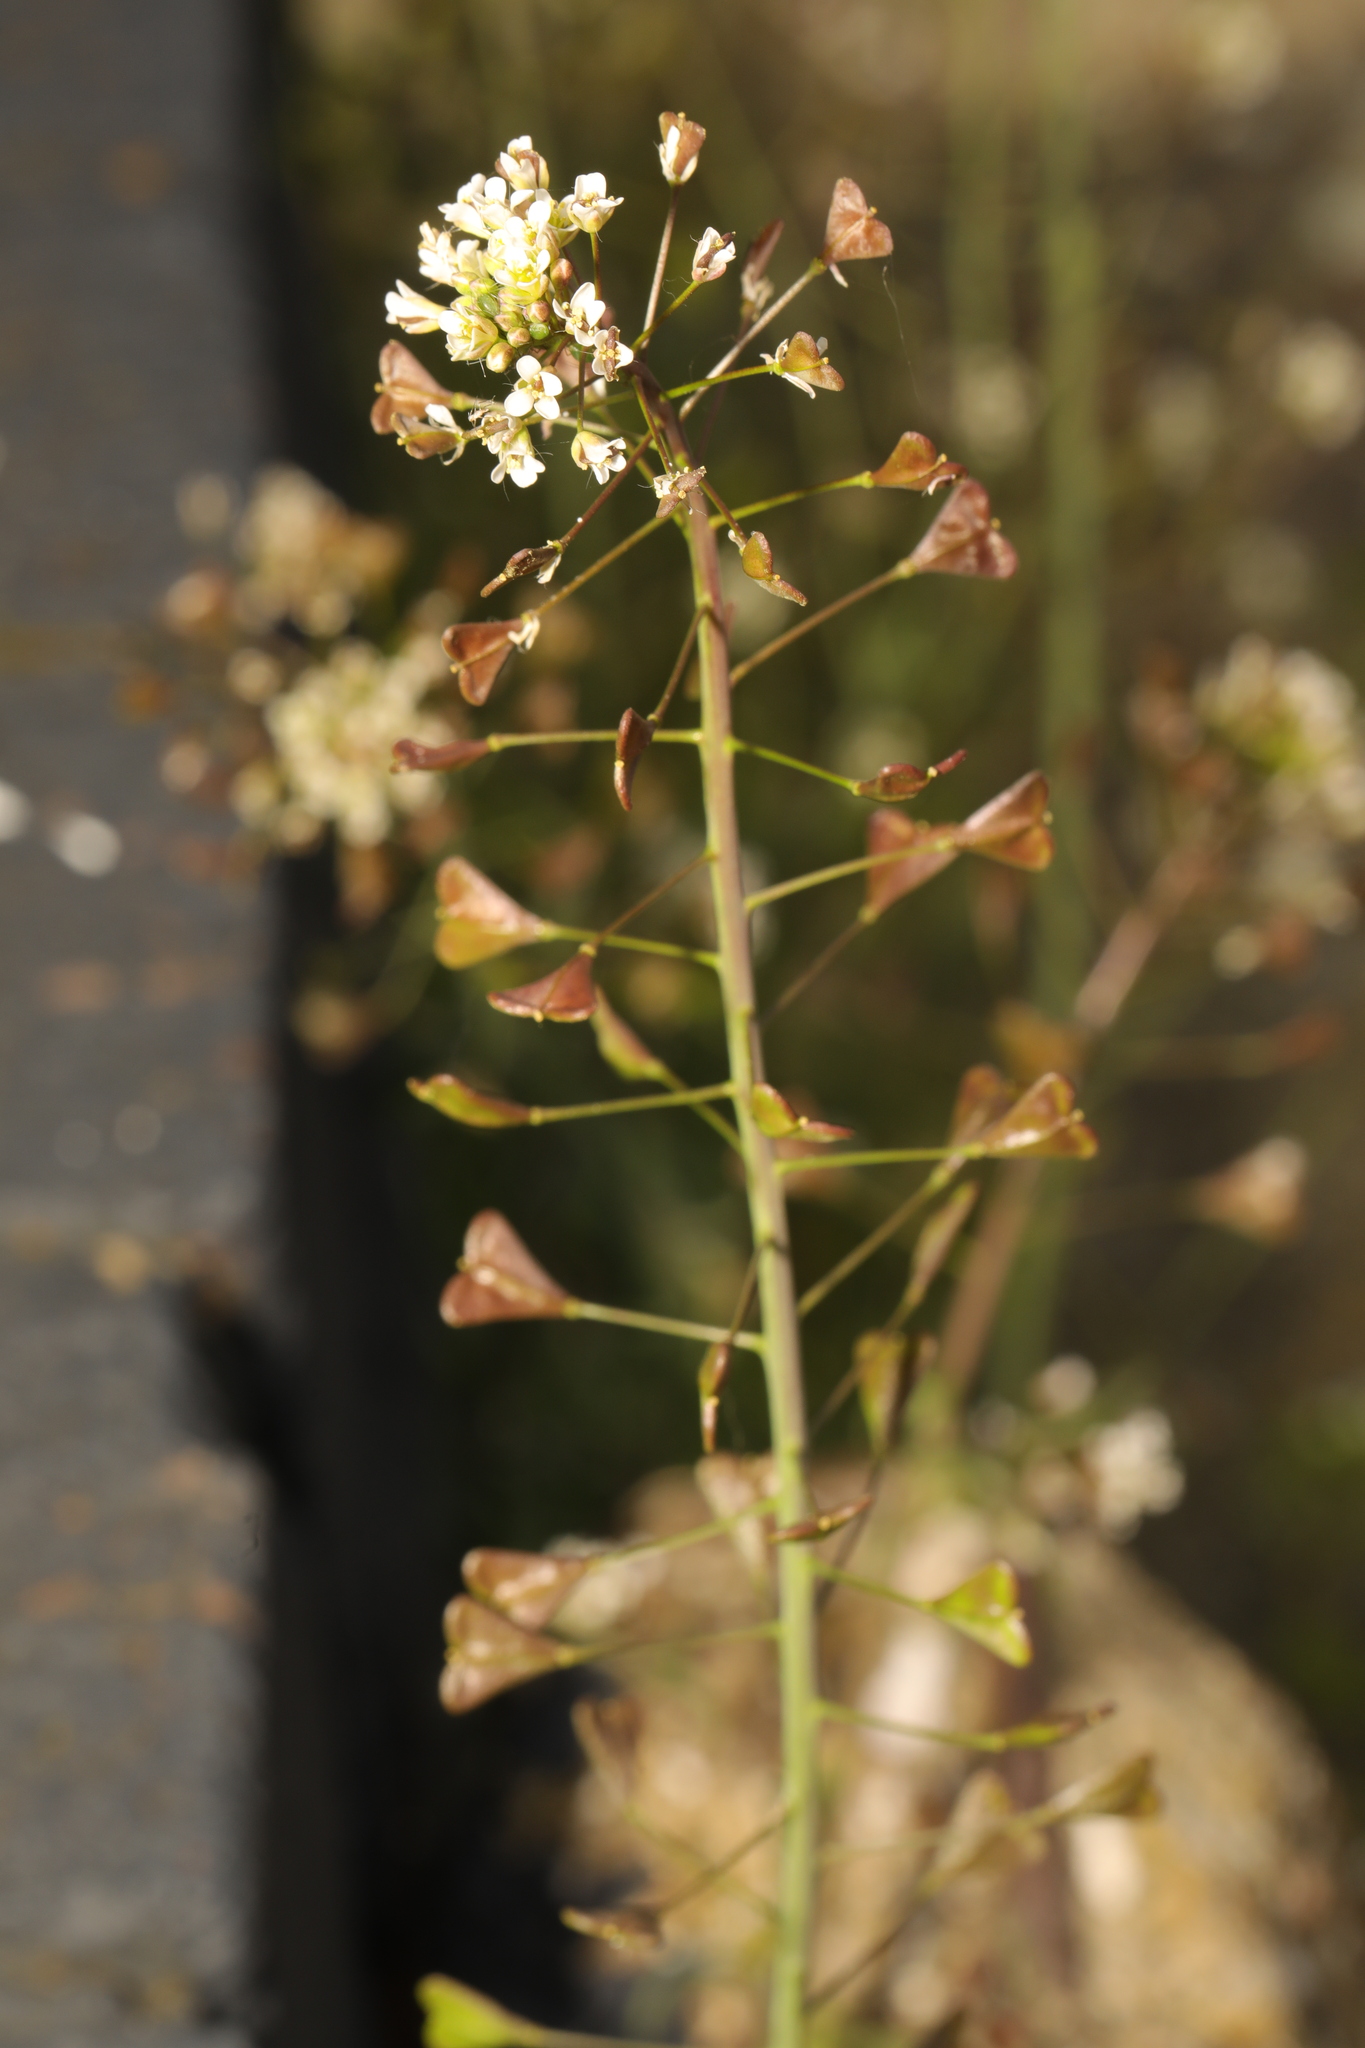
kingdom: Plantae
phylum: Tracheophyta
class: Magnoliopsida
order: Brassicales
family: Brassicaceae
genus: Capsella
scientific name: Capsella bursa-pastoris
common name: Shepherd's purse
